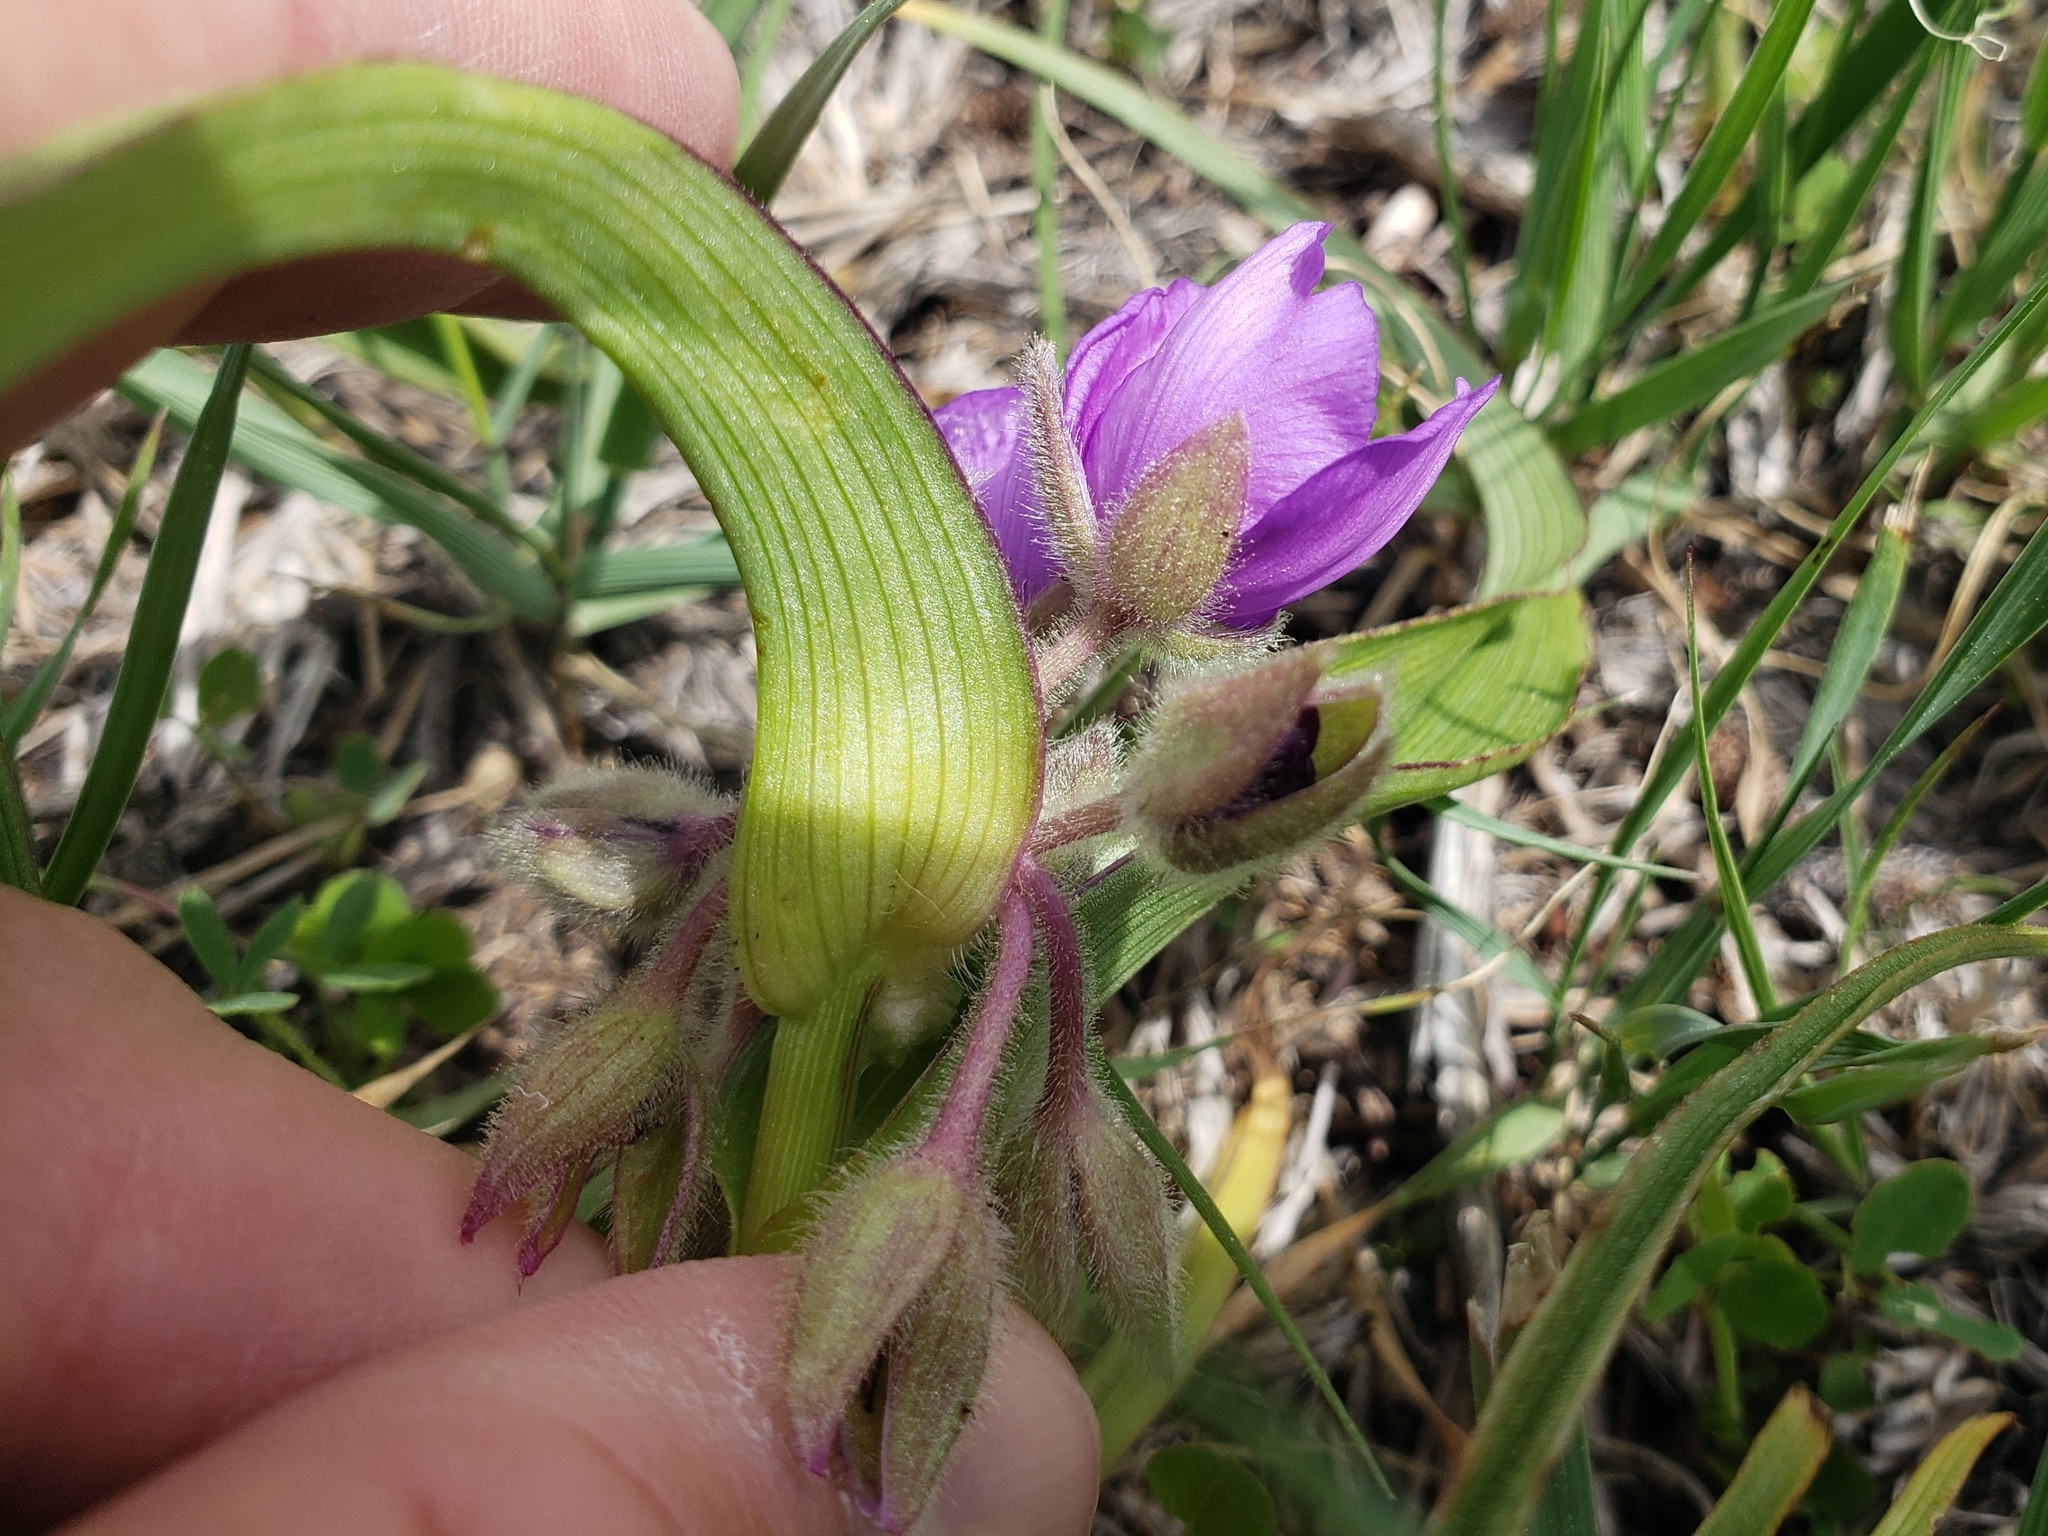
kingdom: Plantae
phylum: Tracheophyta
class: Liliopsida
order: Commelinales
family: Commelinaceae
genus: Tradescantia
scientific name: Tradescantia bracteata
